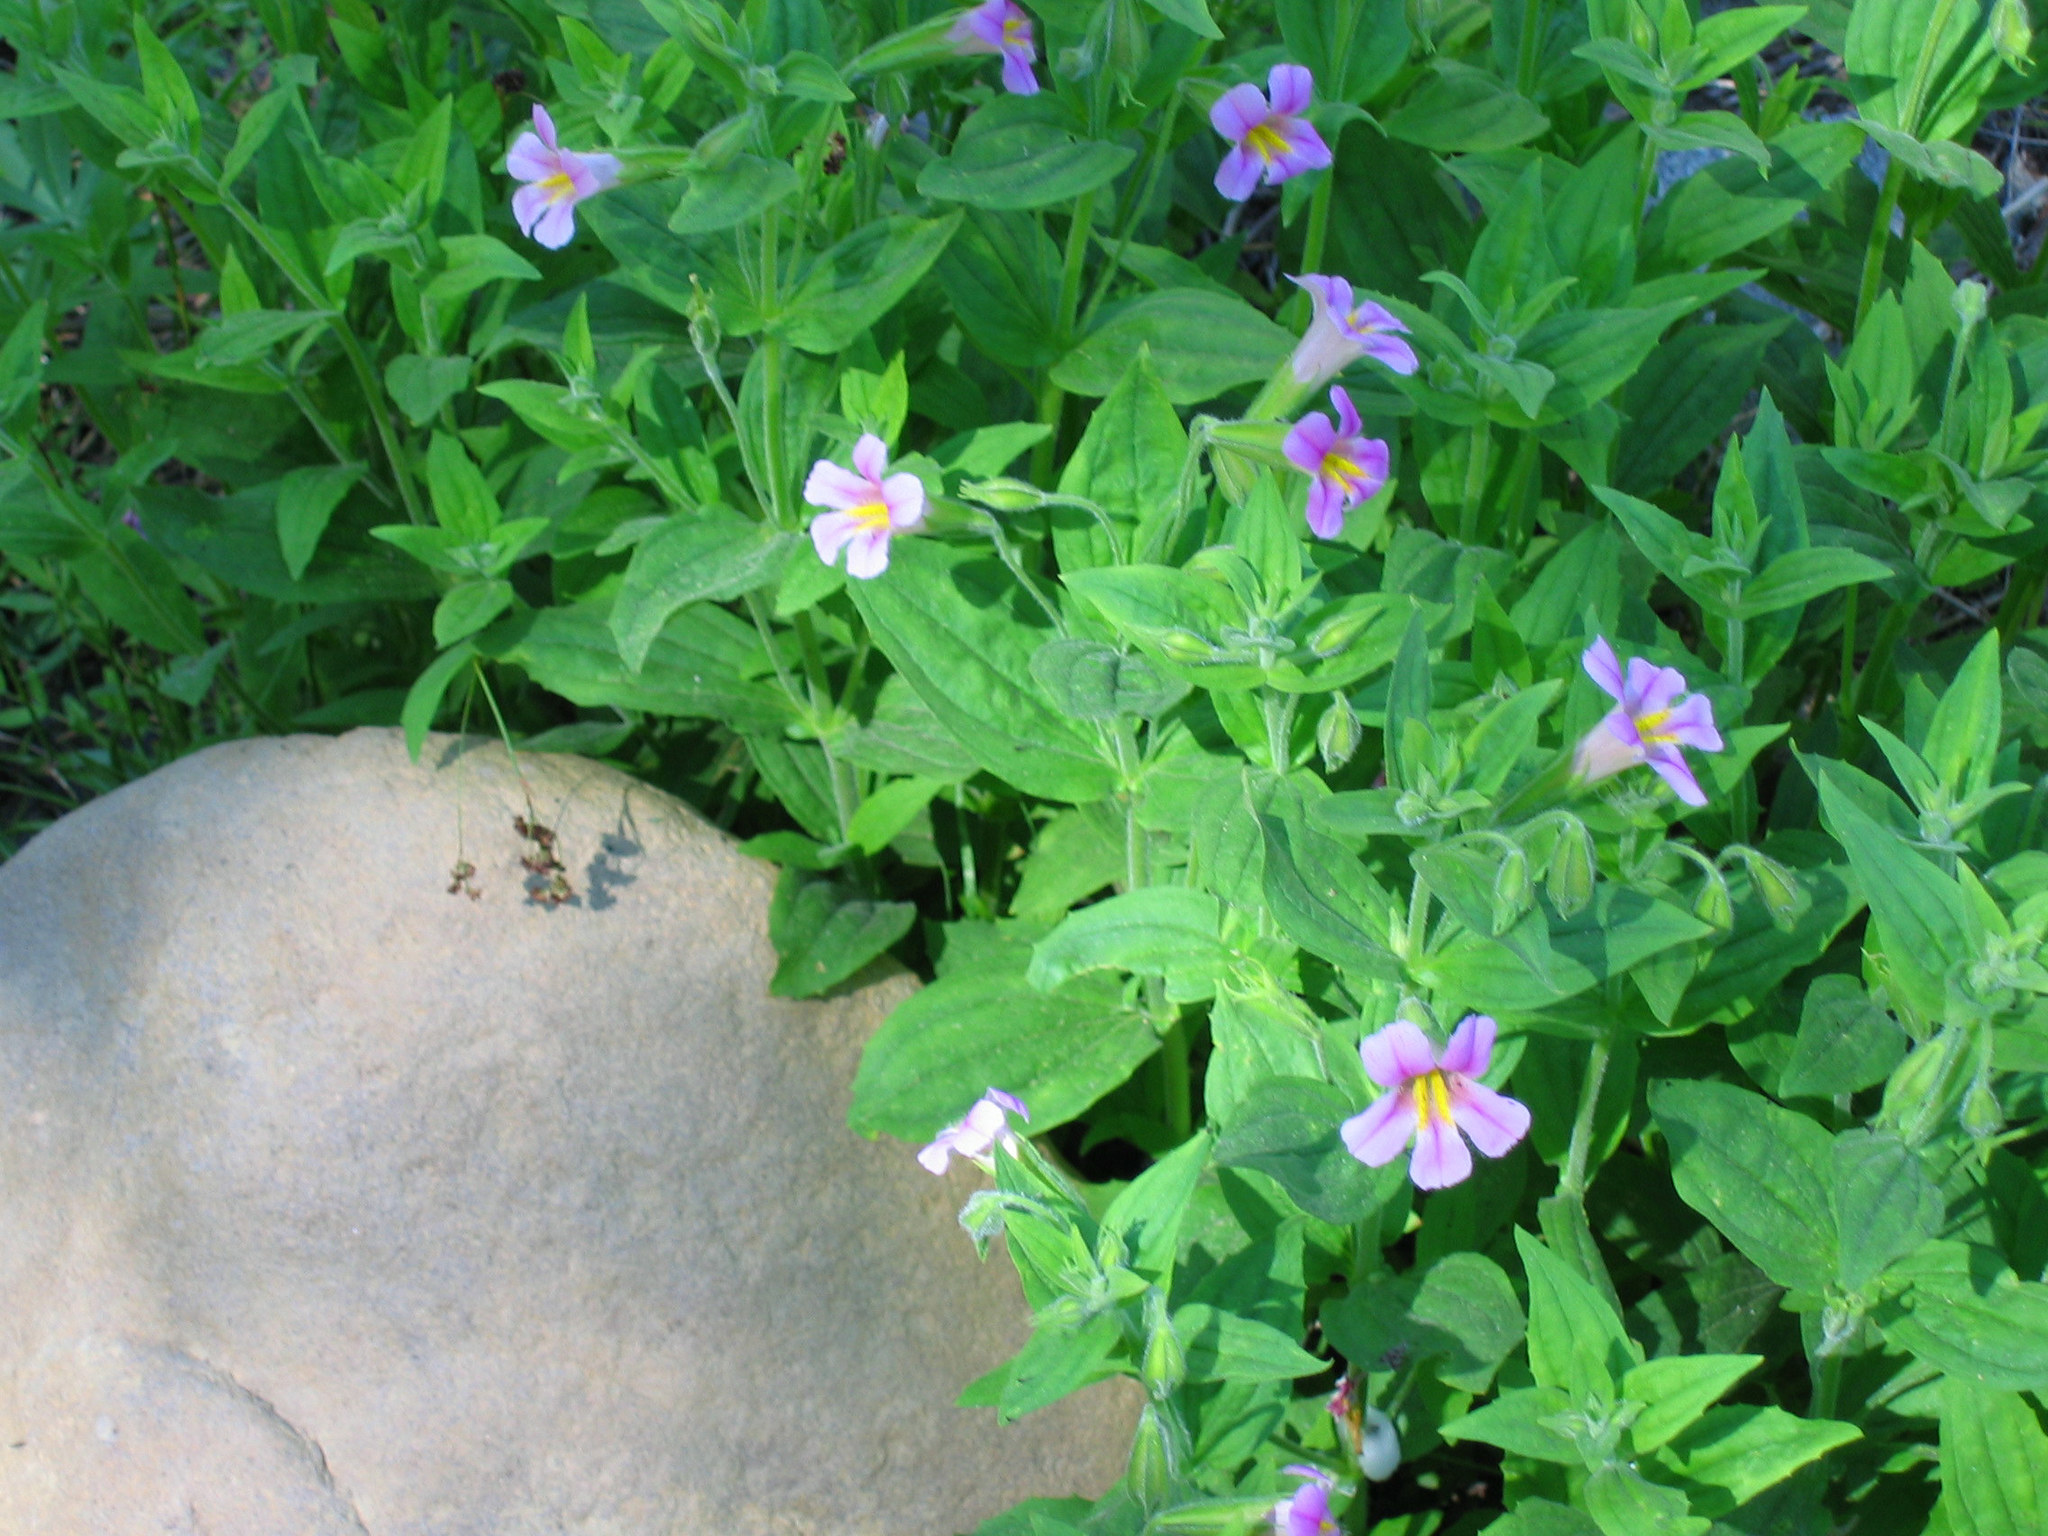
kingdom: Plantae
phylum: Tracheophyta
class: Magnoliopsida
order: Lamiales
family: Phrymaceae
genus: Erythranthe
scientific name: Erythranthe erubescens
